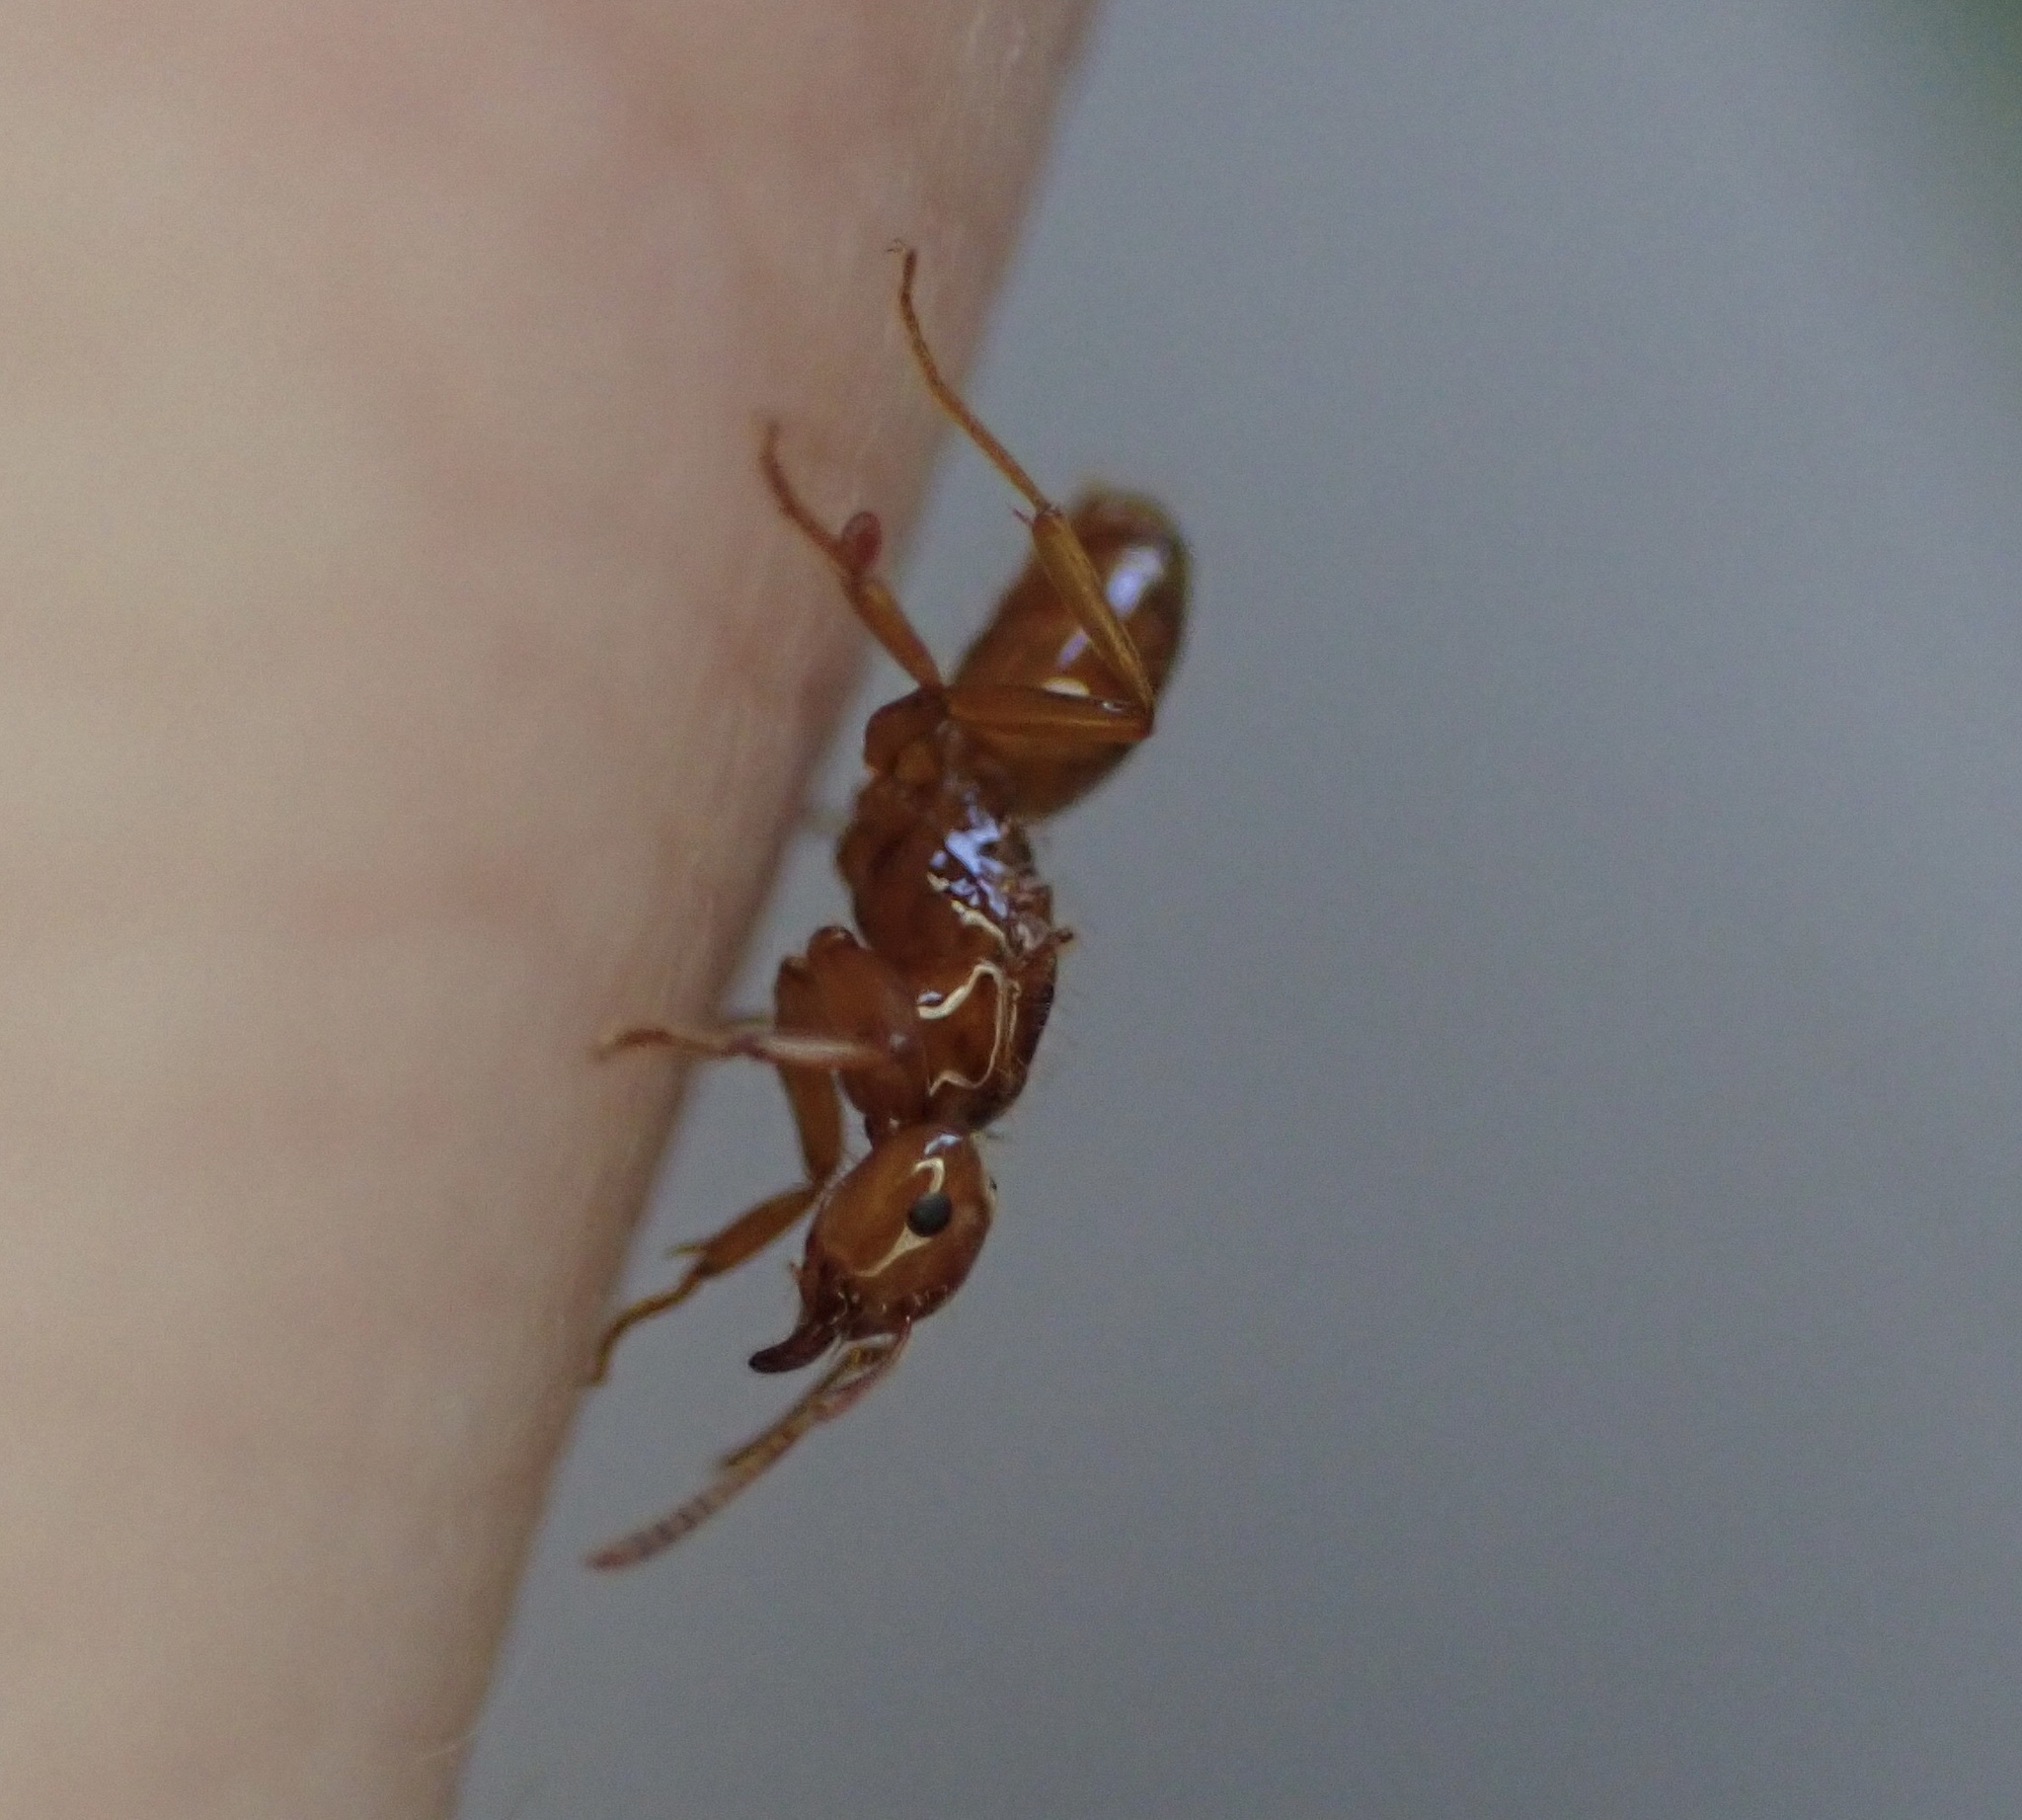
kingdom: Animalia
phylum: Arthropoda
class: Insecta
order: Hymenoptera
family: Formicidae
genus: Acanthomyops
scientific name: Acanthomyops interjectus
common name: Larger yellow ant
